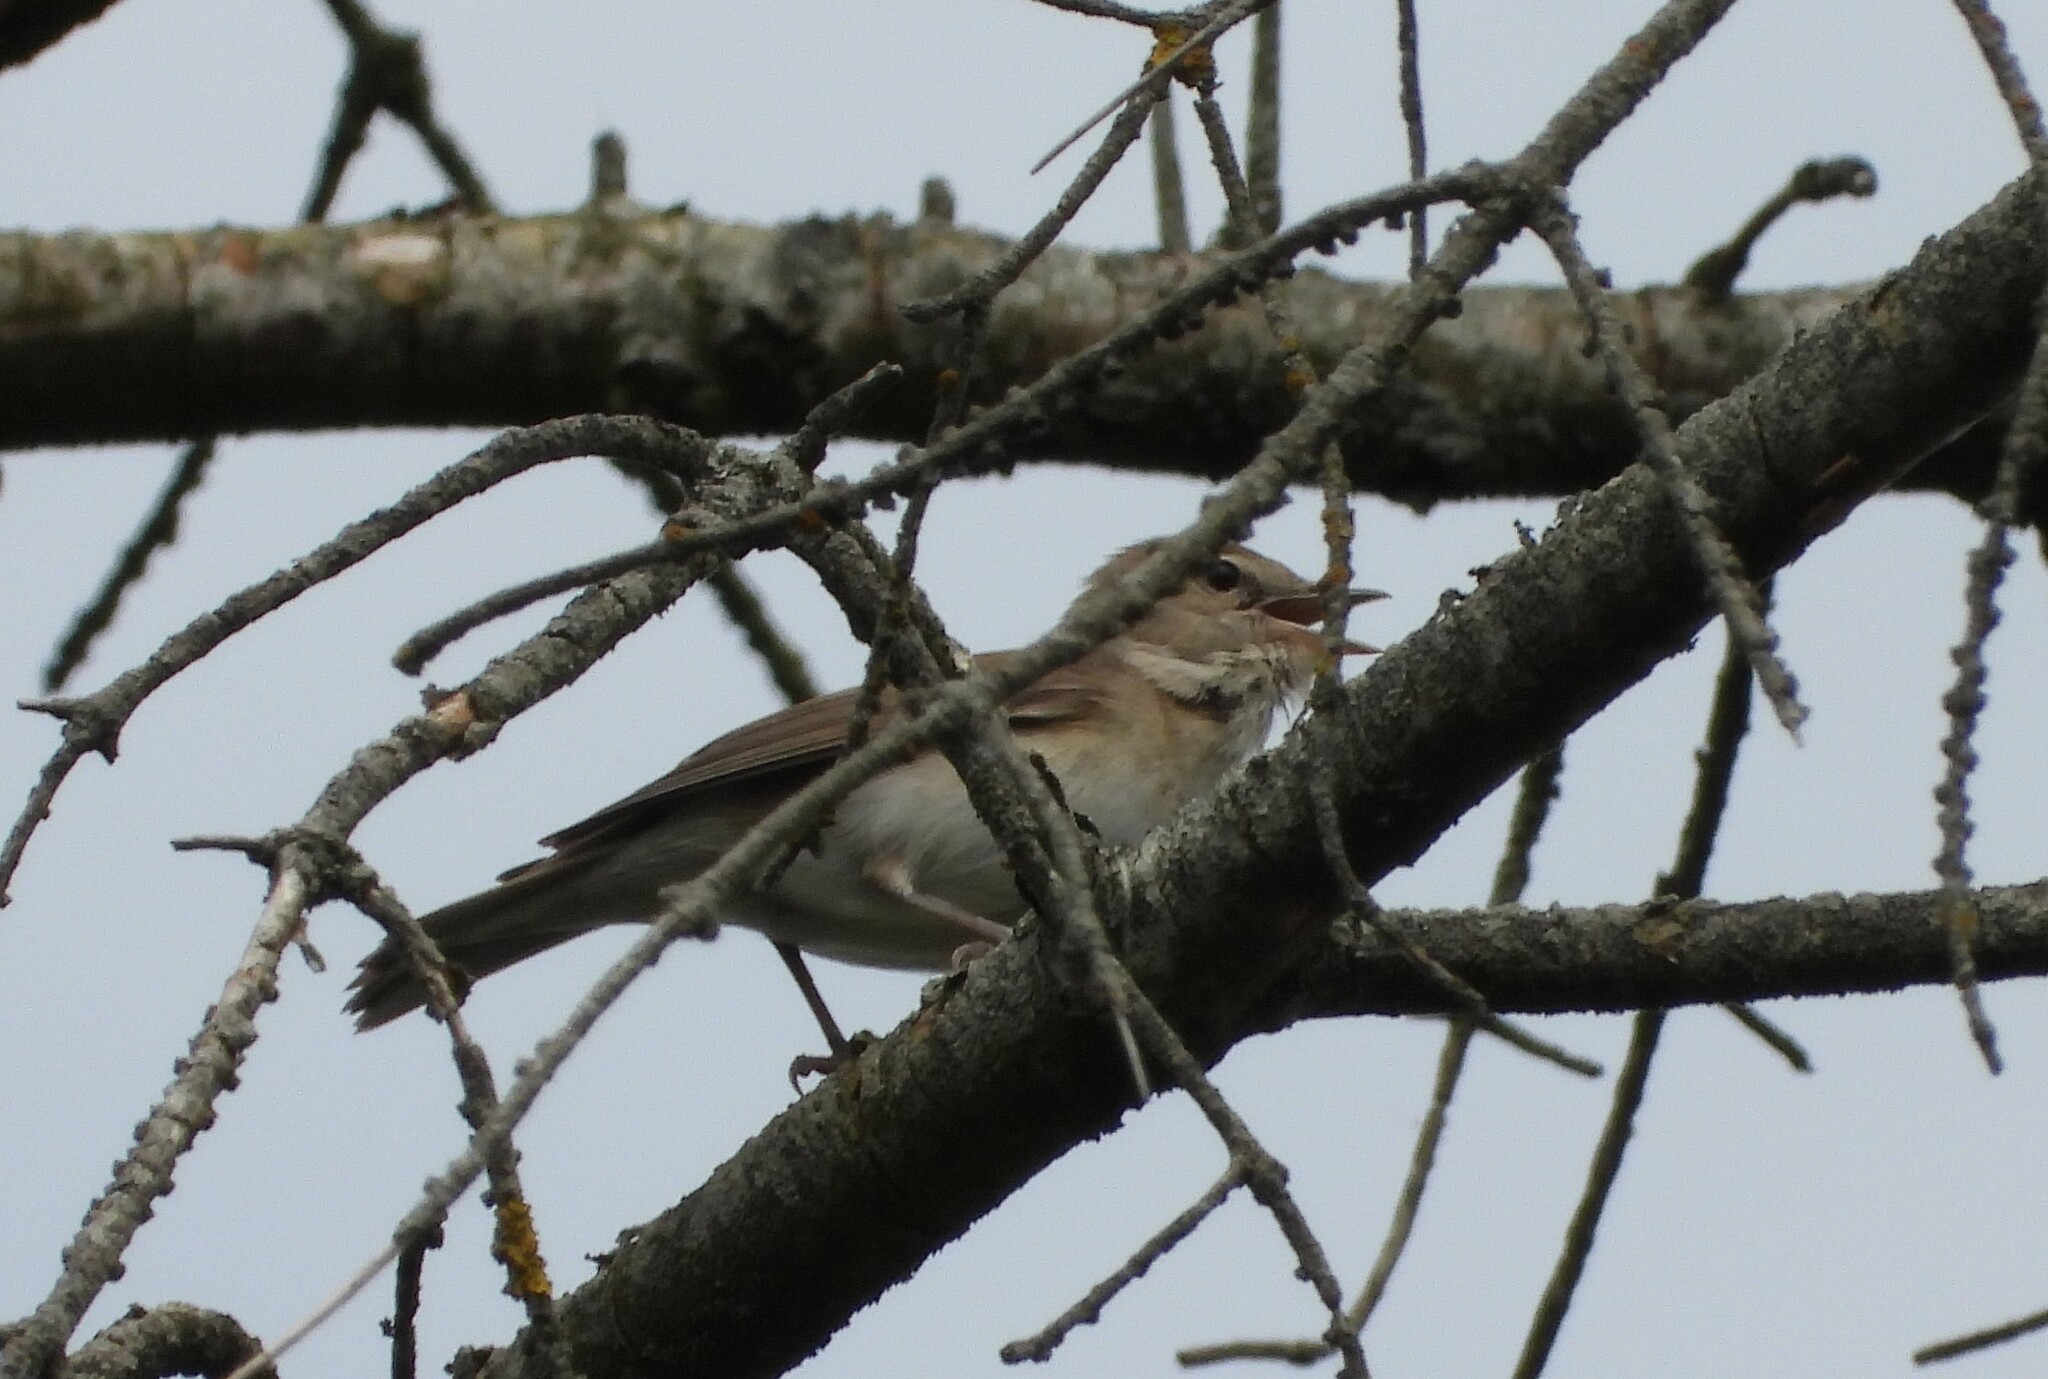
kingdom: Animalia
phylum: Chordata
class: Aves
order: Passeriformes
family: Sylviidae
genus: Sylvia
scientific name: Sylvia borin
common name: Garden warbler
